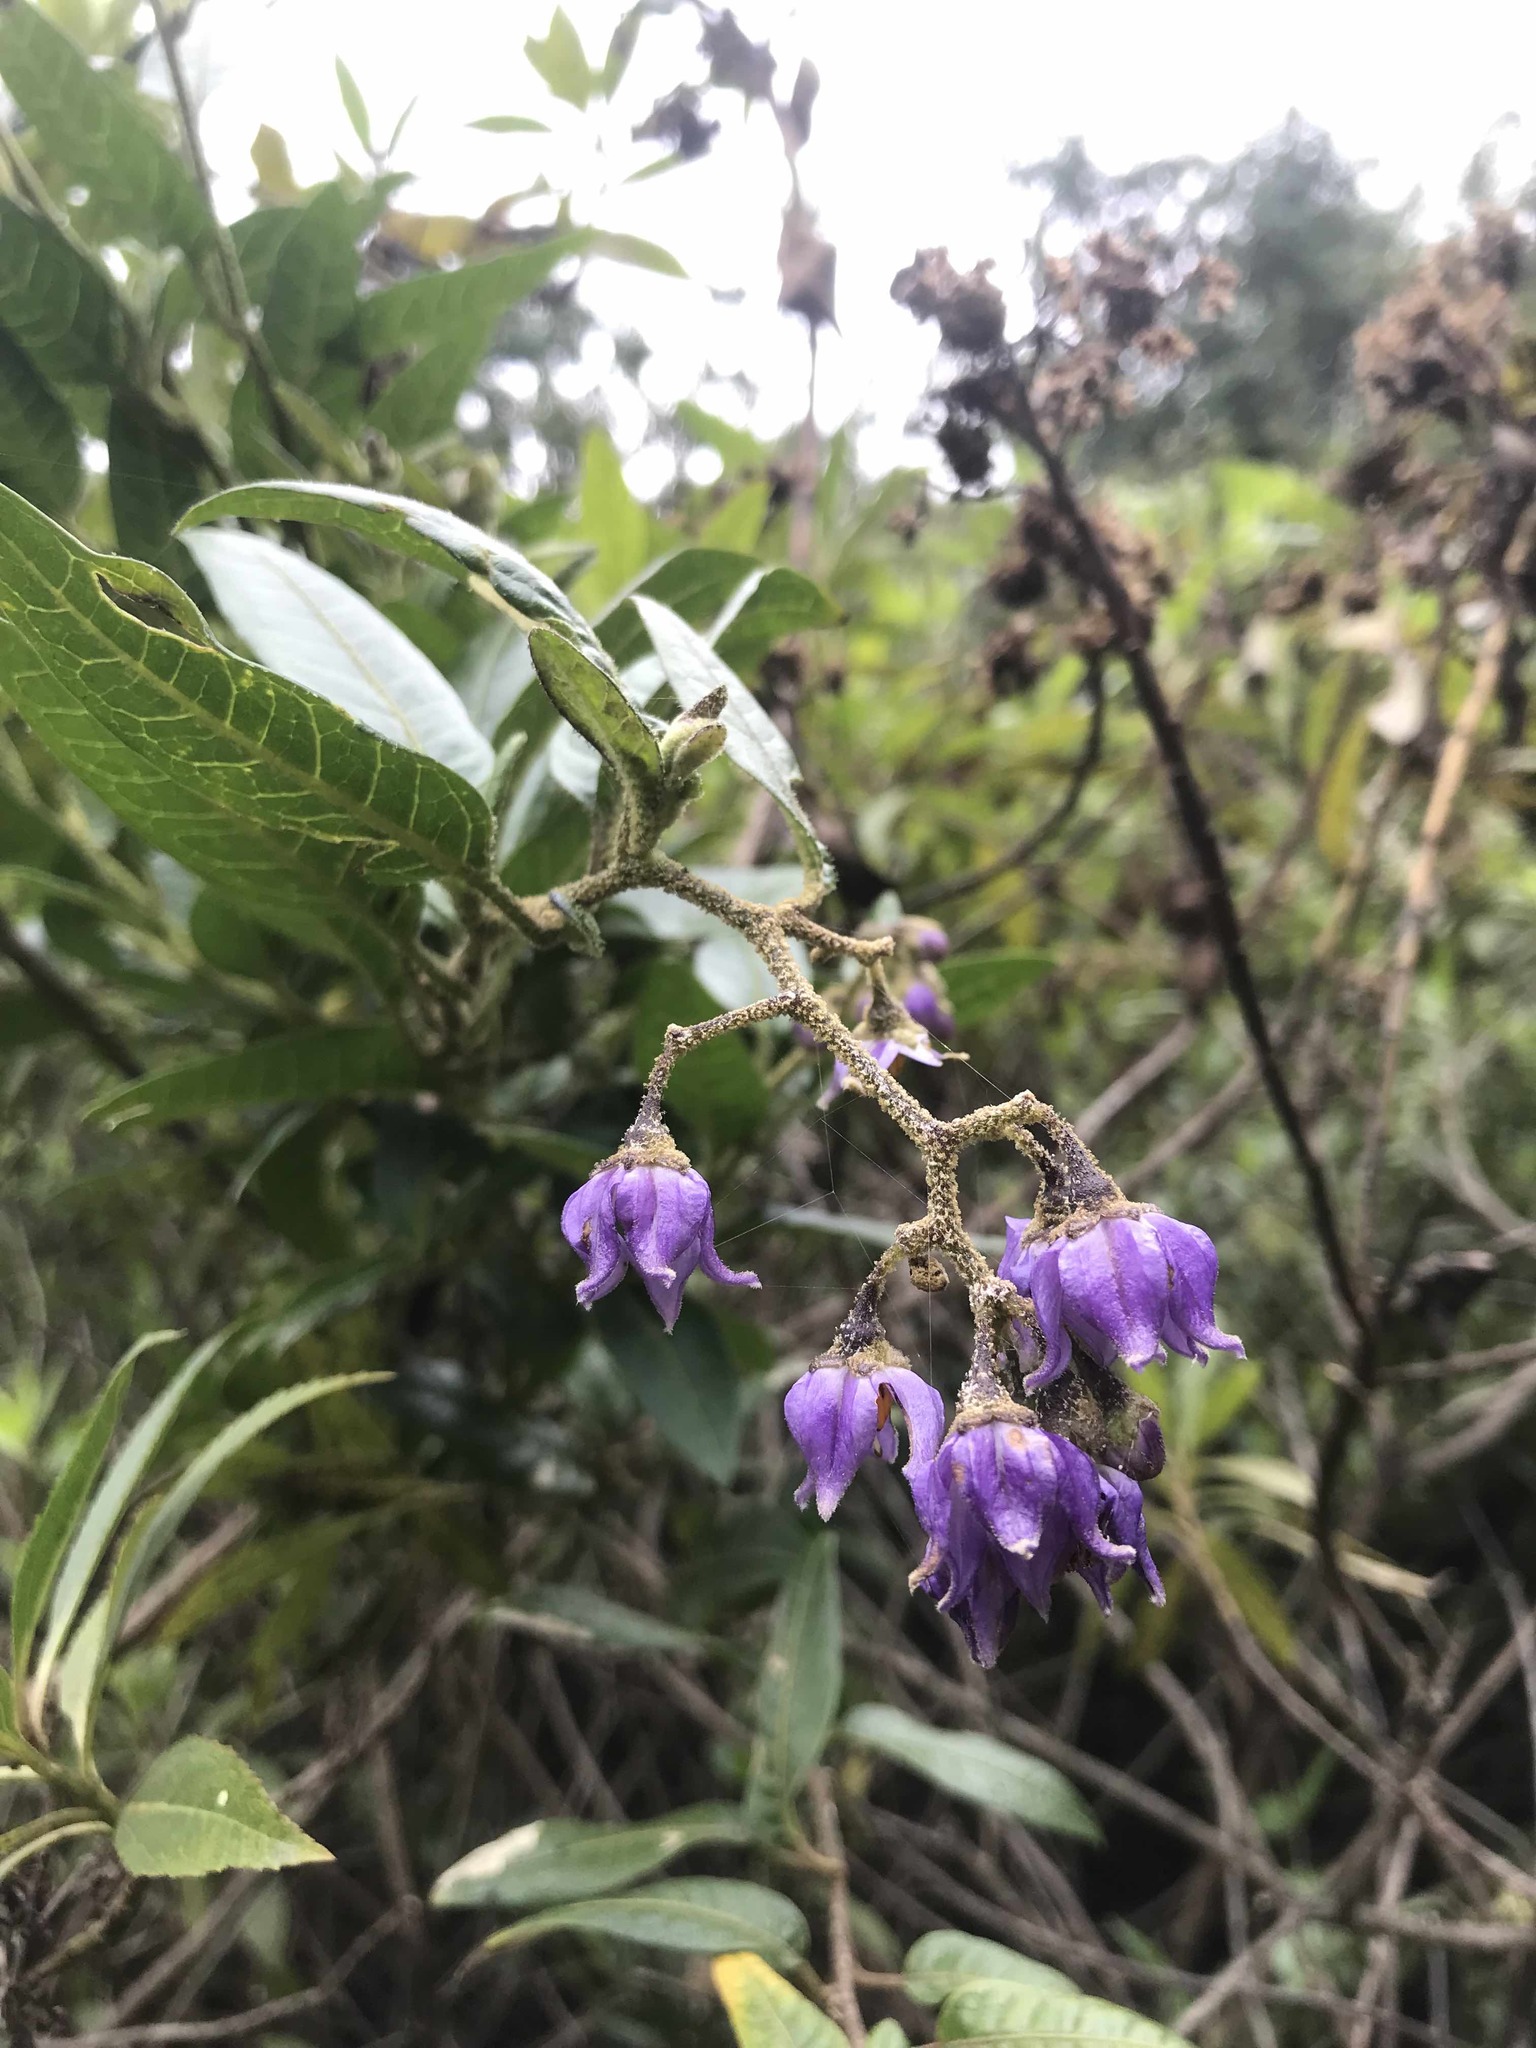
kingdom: Plantae
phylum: Tracheophyta
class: Magnoliopsida
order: Oxalidales
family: Elaeocarpaceae
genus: Vallea
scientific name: Vallea stipularis
